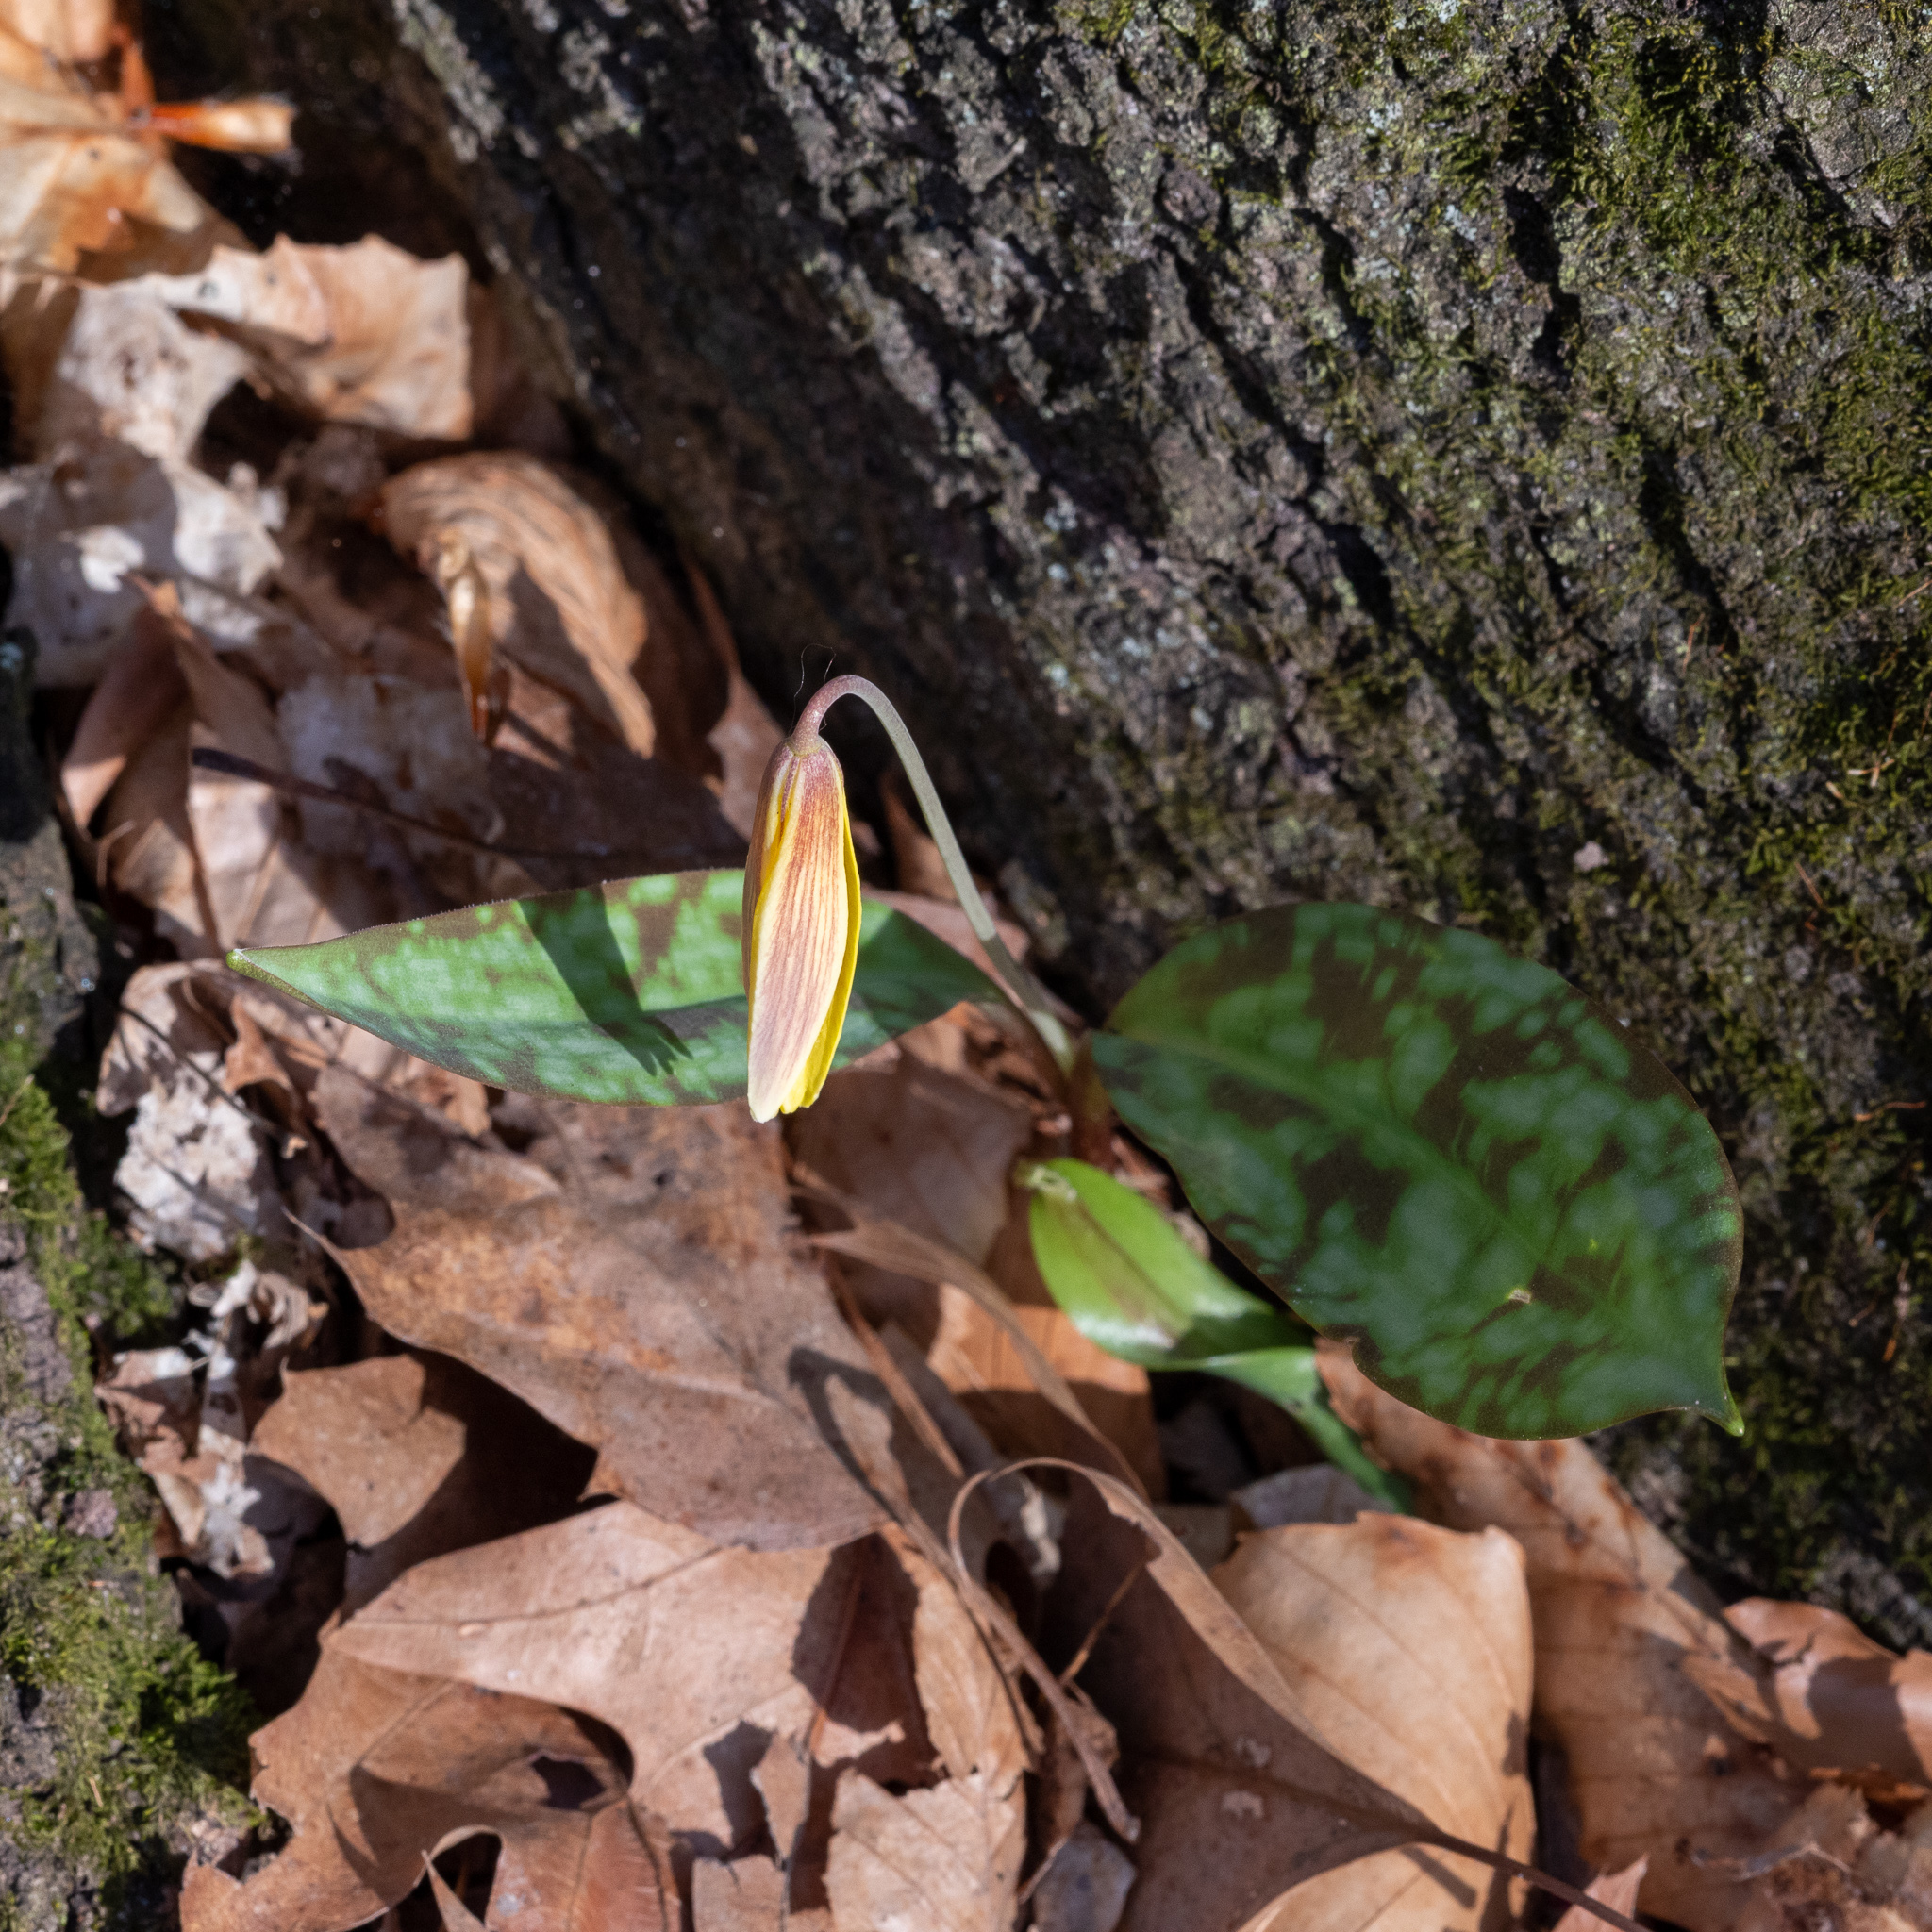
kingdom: Plantae
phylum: Tracheophyta
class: Liliopsida
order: Liliales
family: Liliaceae
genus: Erythronium
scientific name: Erythronium americanum
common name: Yellow adder's-tongue
